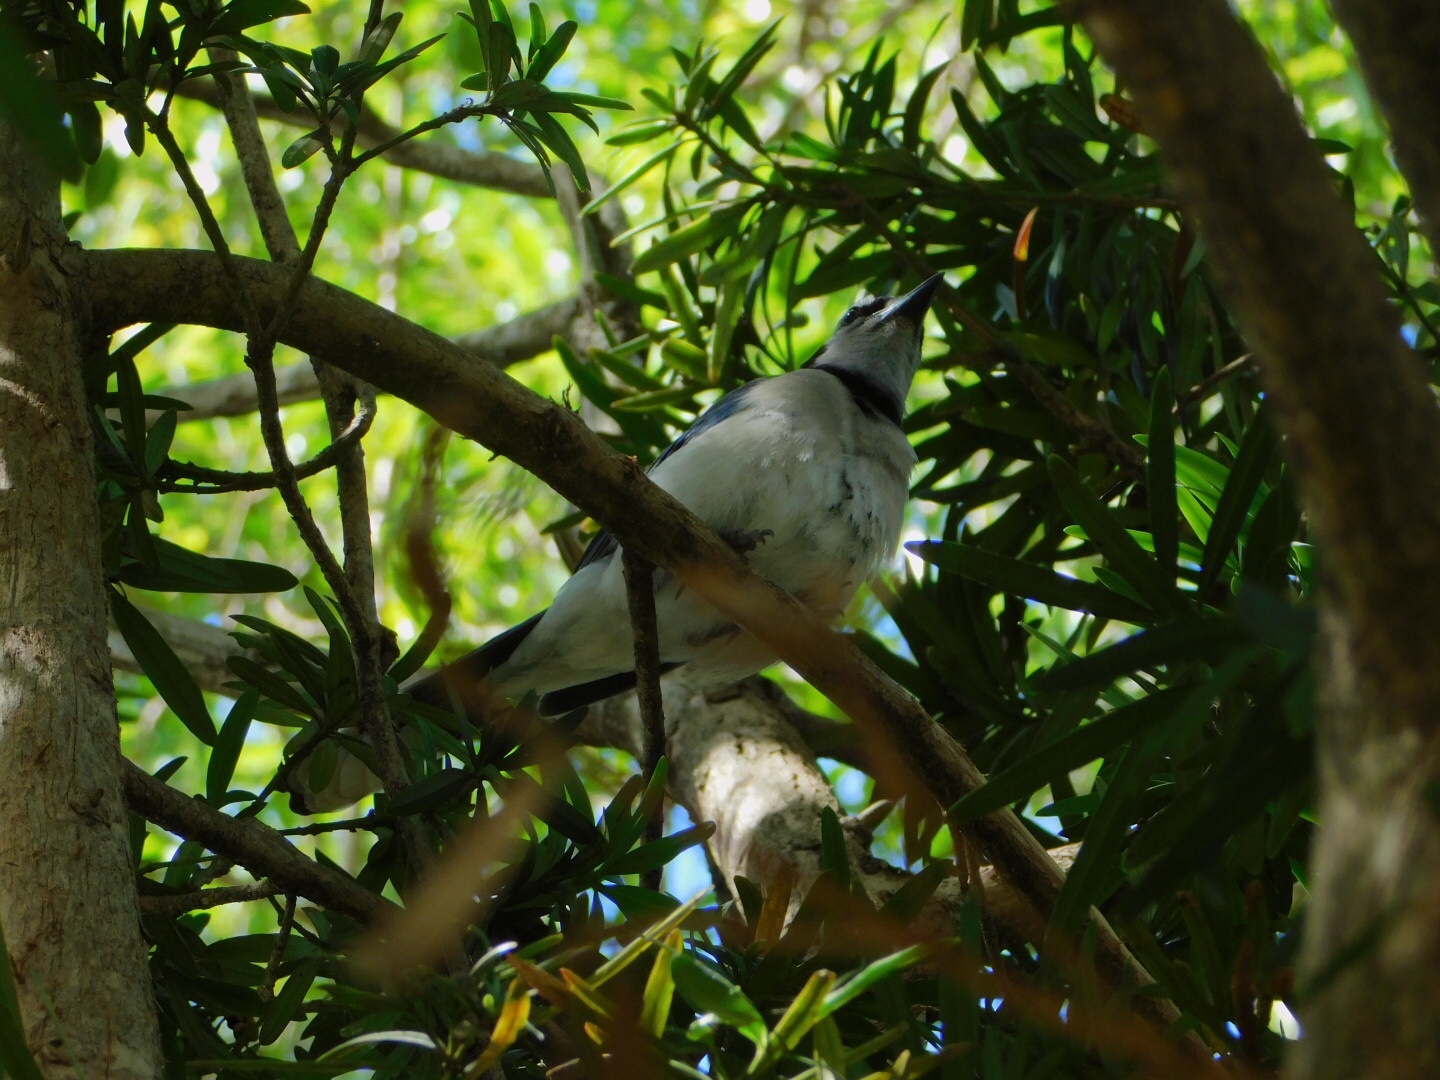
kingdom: Animalia
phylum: Chordata
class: Aves
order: Passeriformes
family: Corvidae
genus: Cyanocitta
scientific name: Cyanocitta cristata
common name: Blue jay
